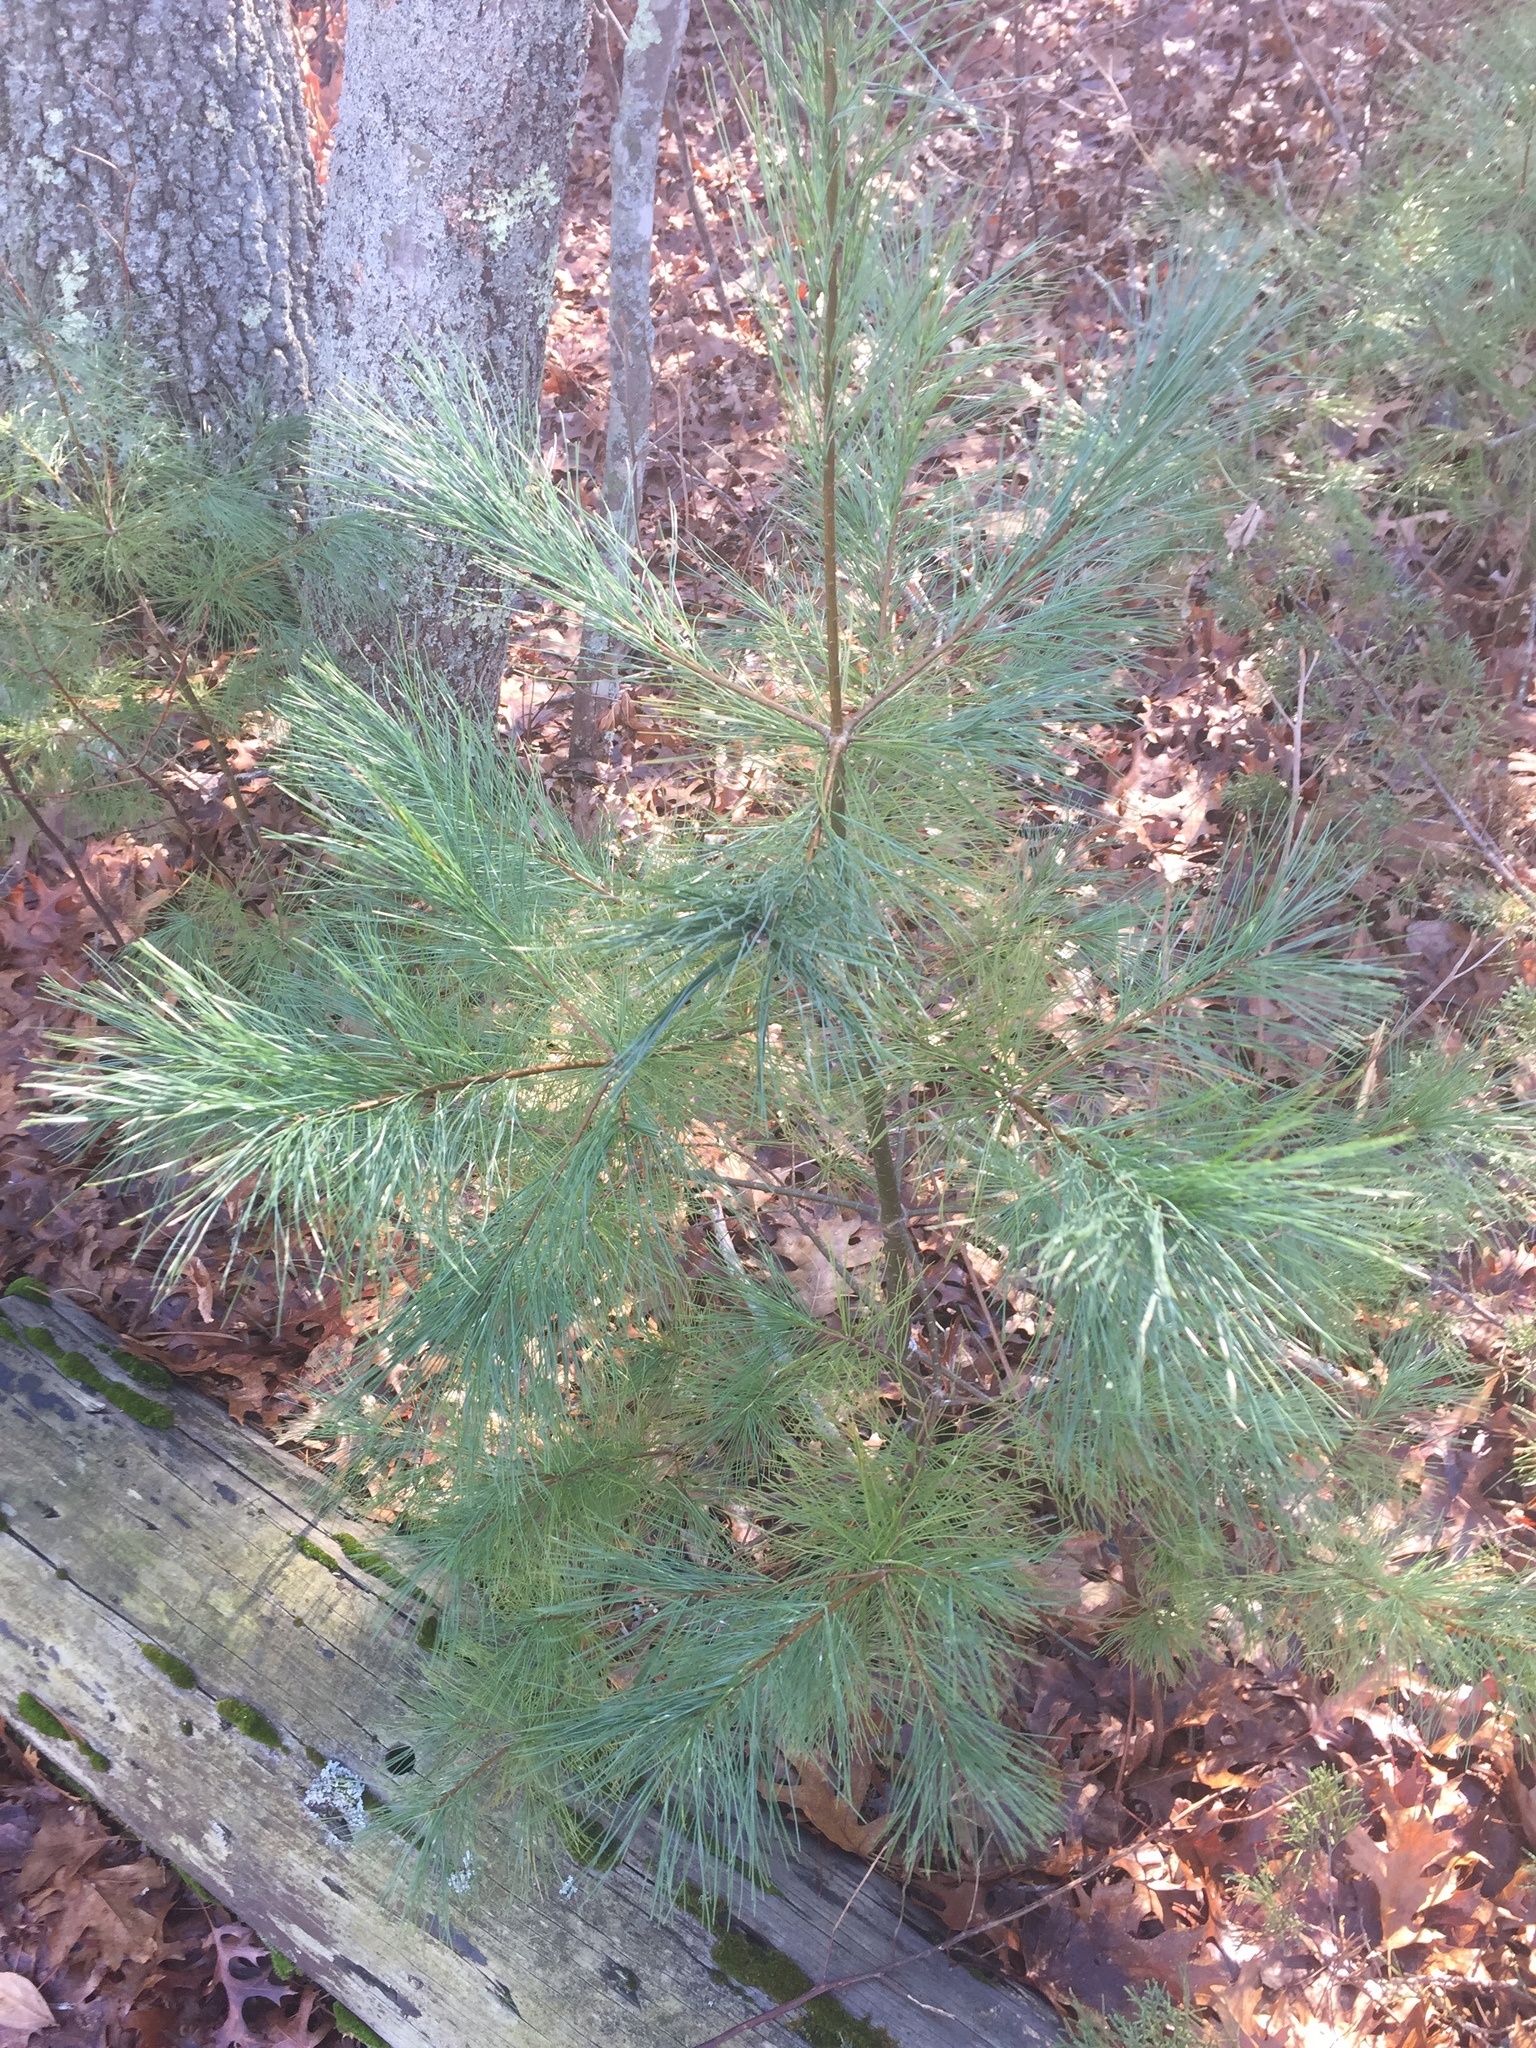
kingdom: Plantae
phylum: Tracheophyta
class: Pinopsida
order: Pinales
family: Pinaceae
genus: Pinus
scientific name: Pinus strobus
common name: Weymouth pine
